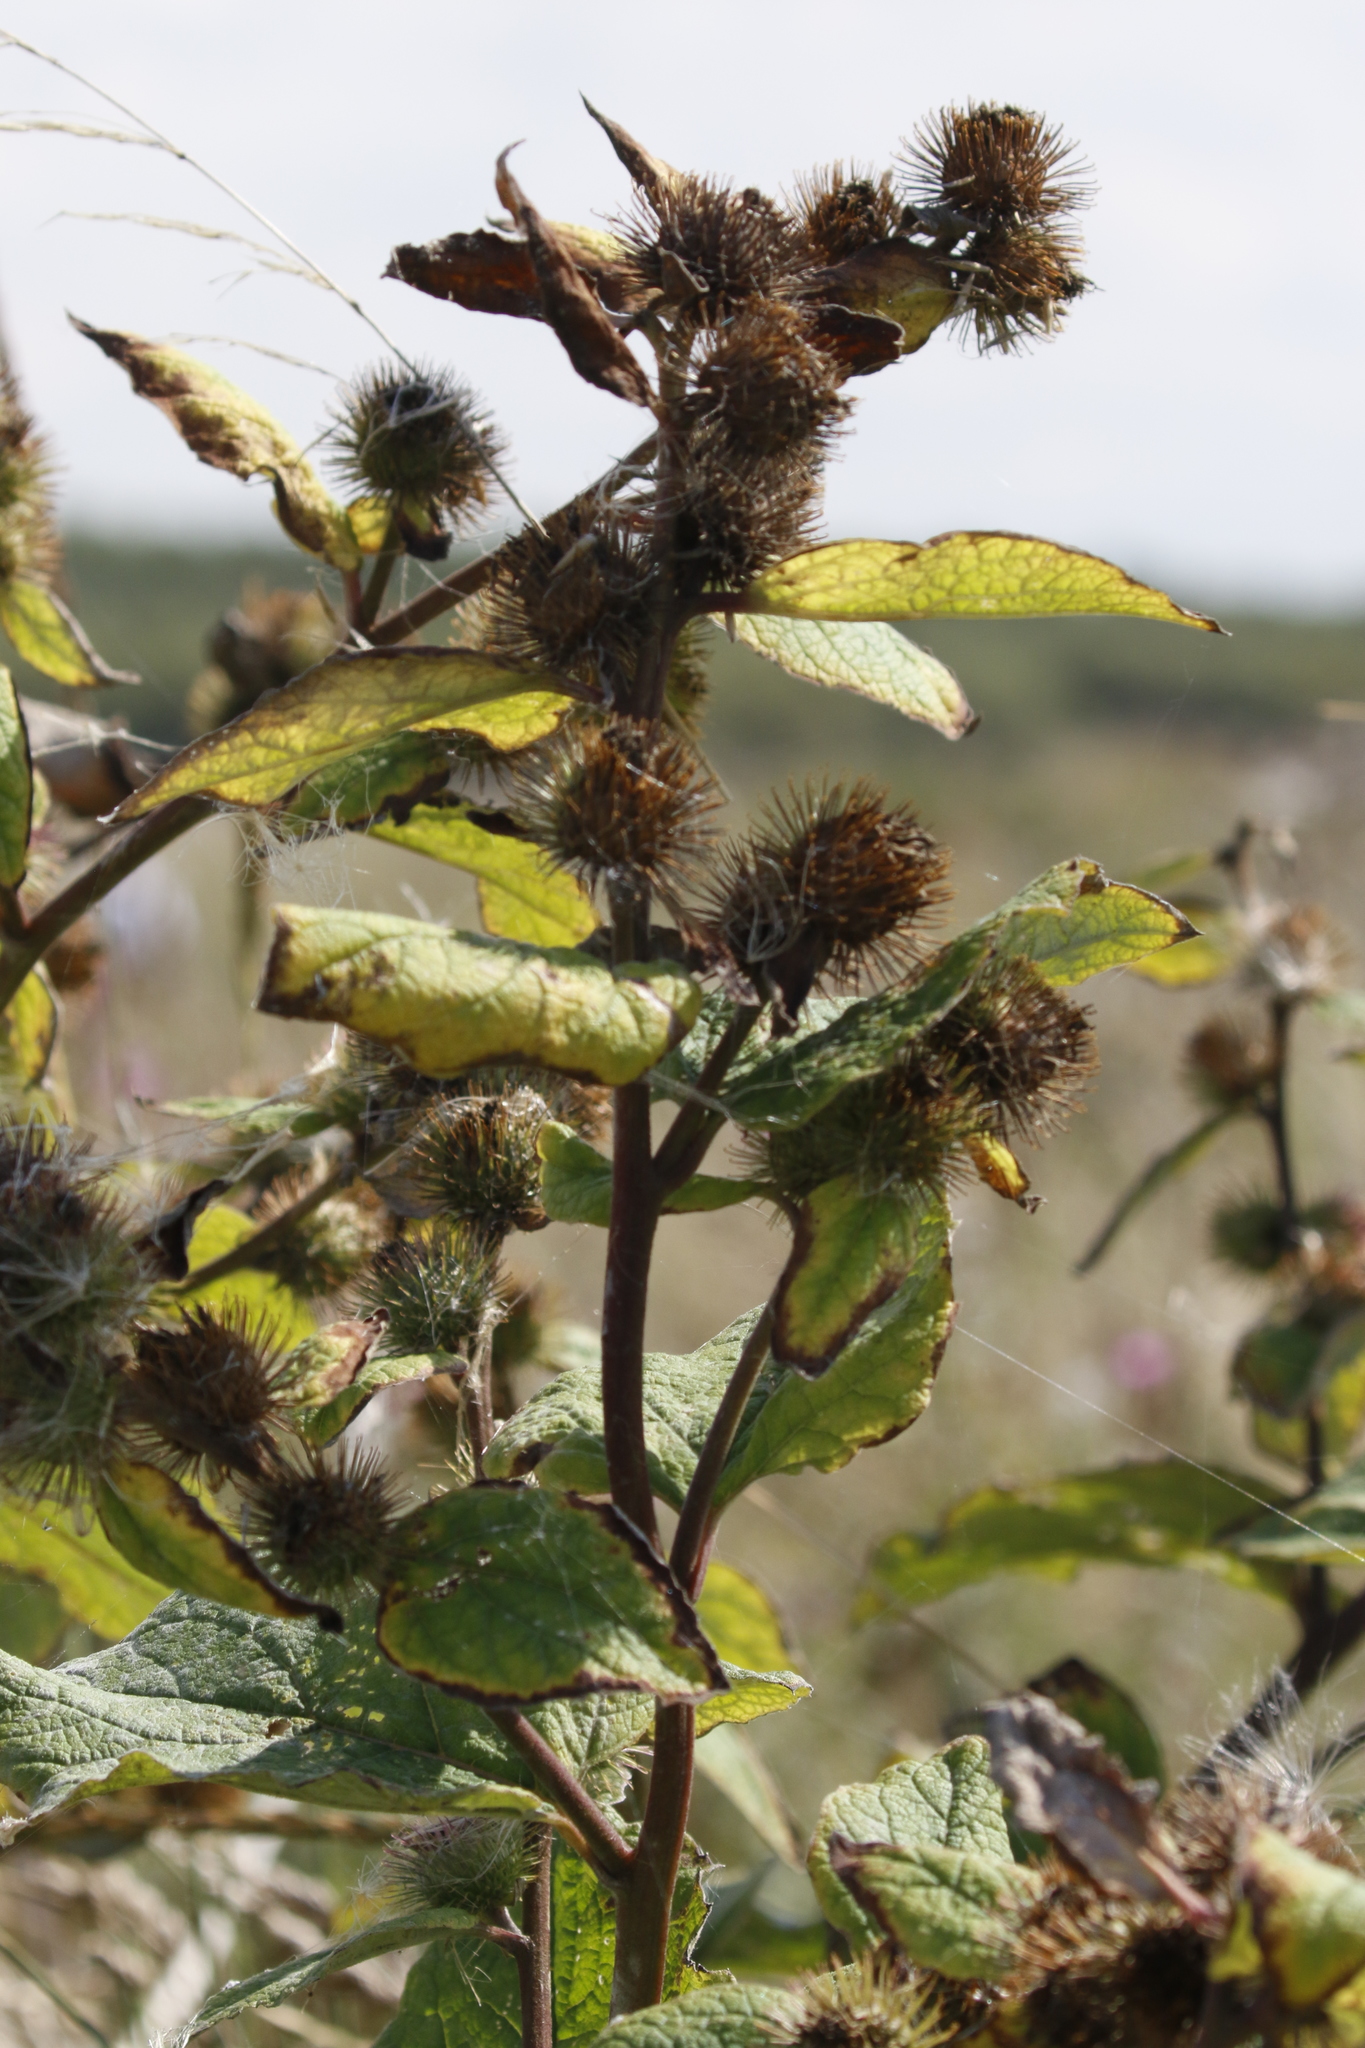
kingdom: Plantae
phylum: Tracheophyta
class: Magnoliopsida
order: Asterales
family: Asteraceae
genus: Arctium
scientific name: Arctium minus
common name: Lesser burdock
